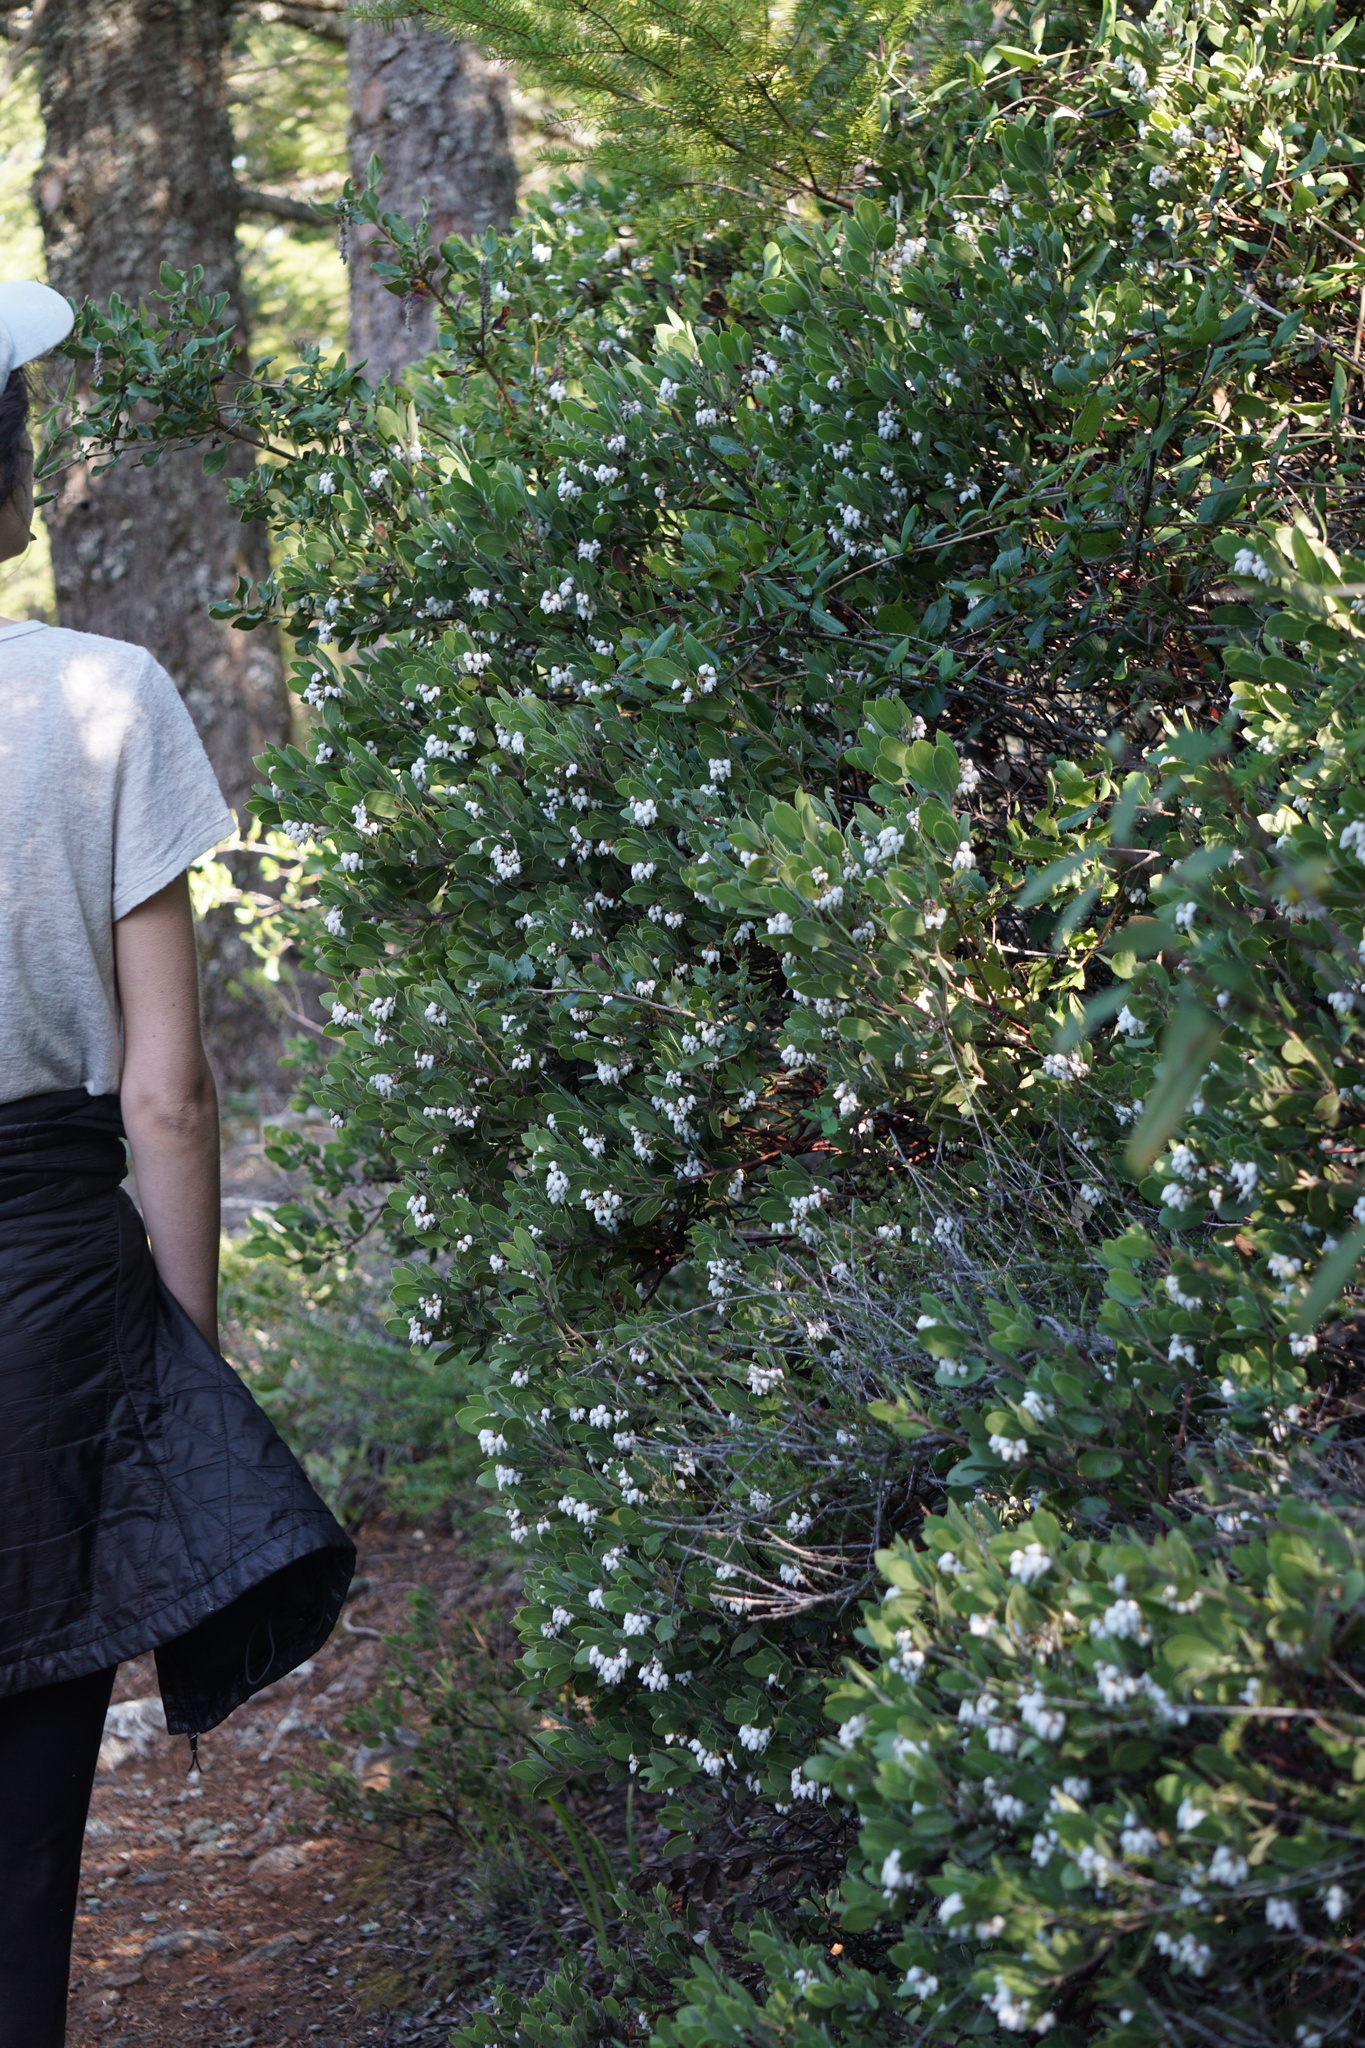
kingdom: Plantae
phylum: Tracheophyta
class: Magnoliopsida
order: Ericales
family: Ericaceae
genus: Arctostaphylos
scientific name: Arctostaphylos montana
